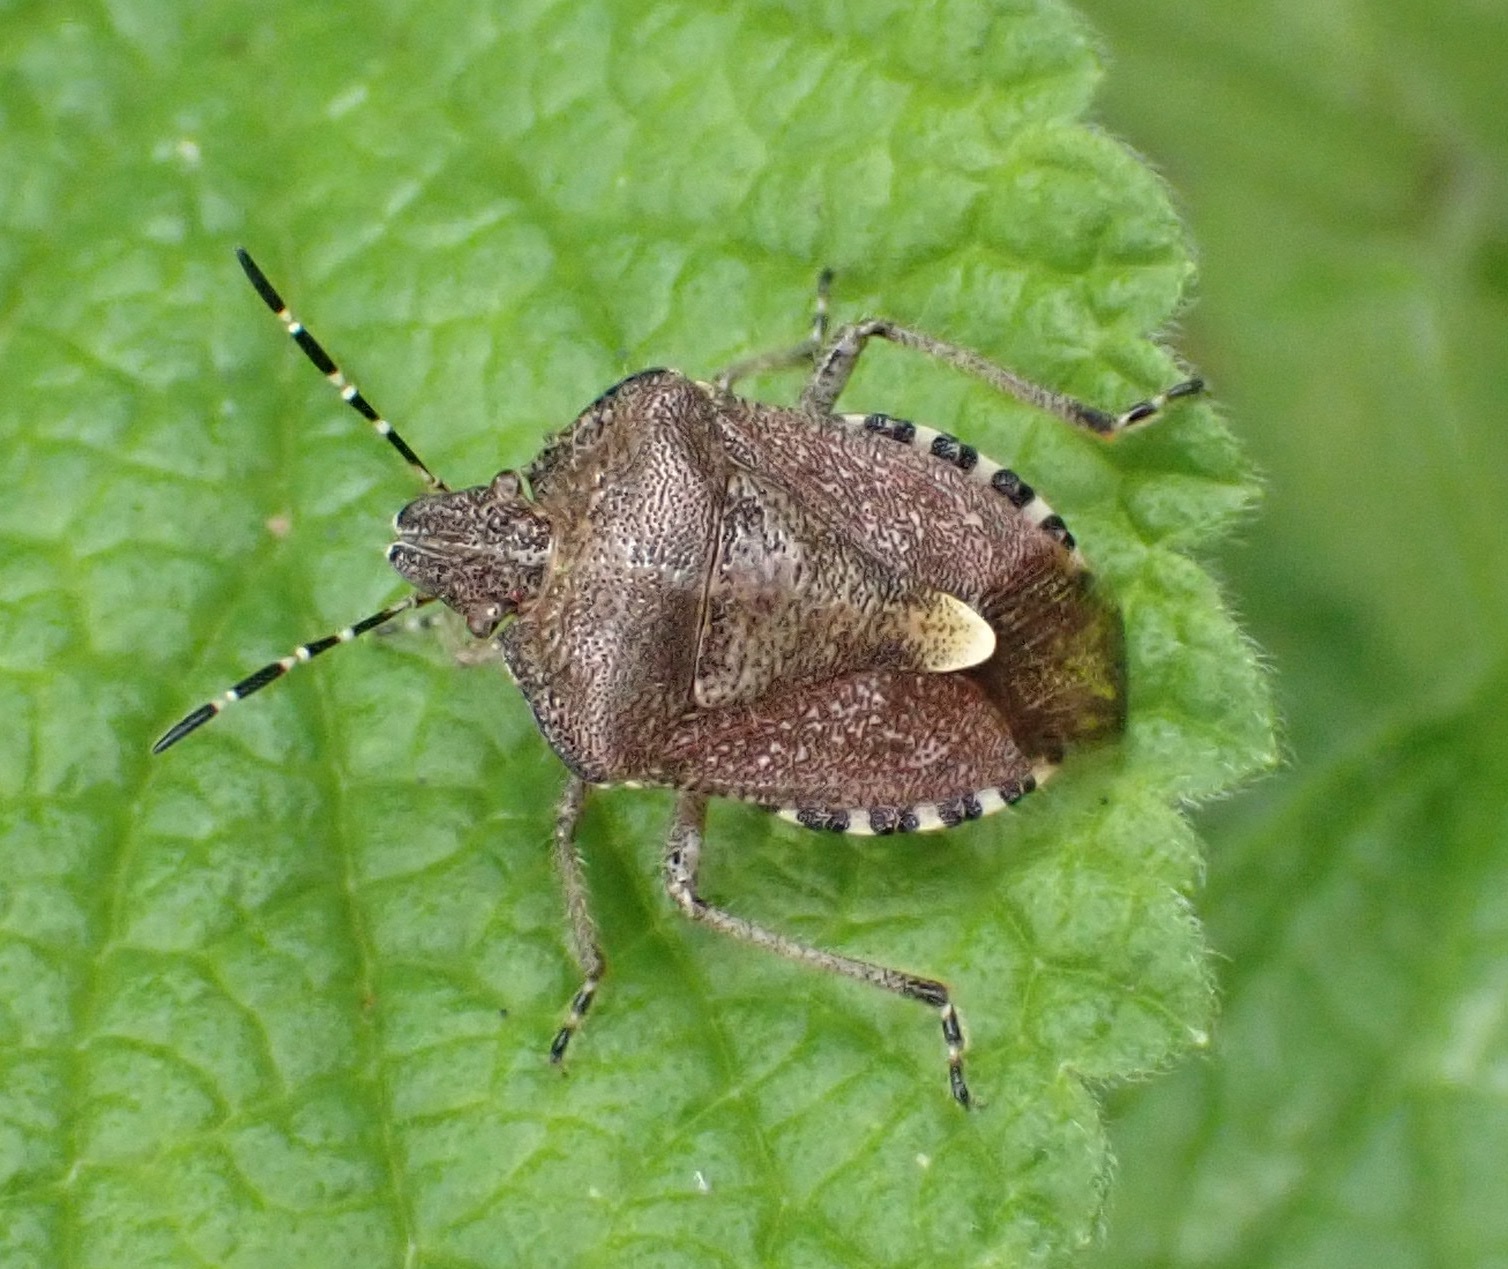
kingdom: Animalia
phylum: Arthropoda
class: Insecta
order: Hemiptera
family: Pentatomidae
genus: Dolycoris
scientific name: Dolycoris baccarum
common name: Sloe bug
